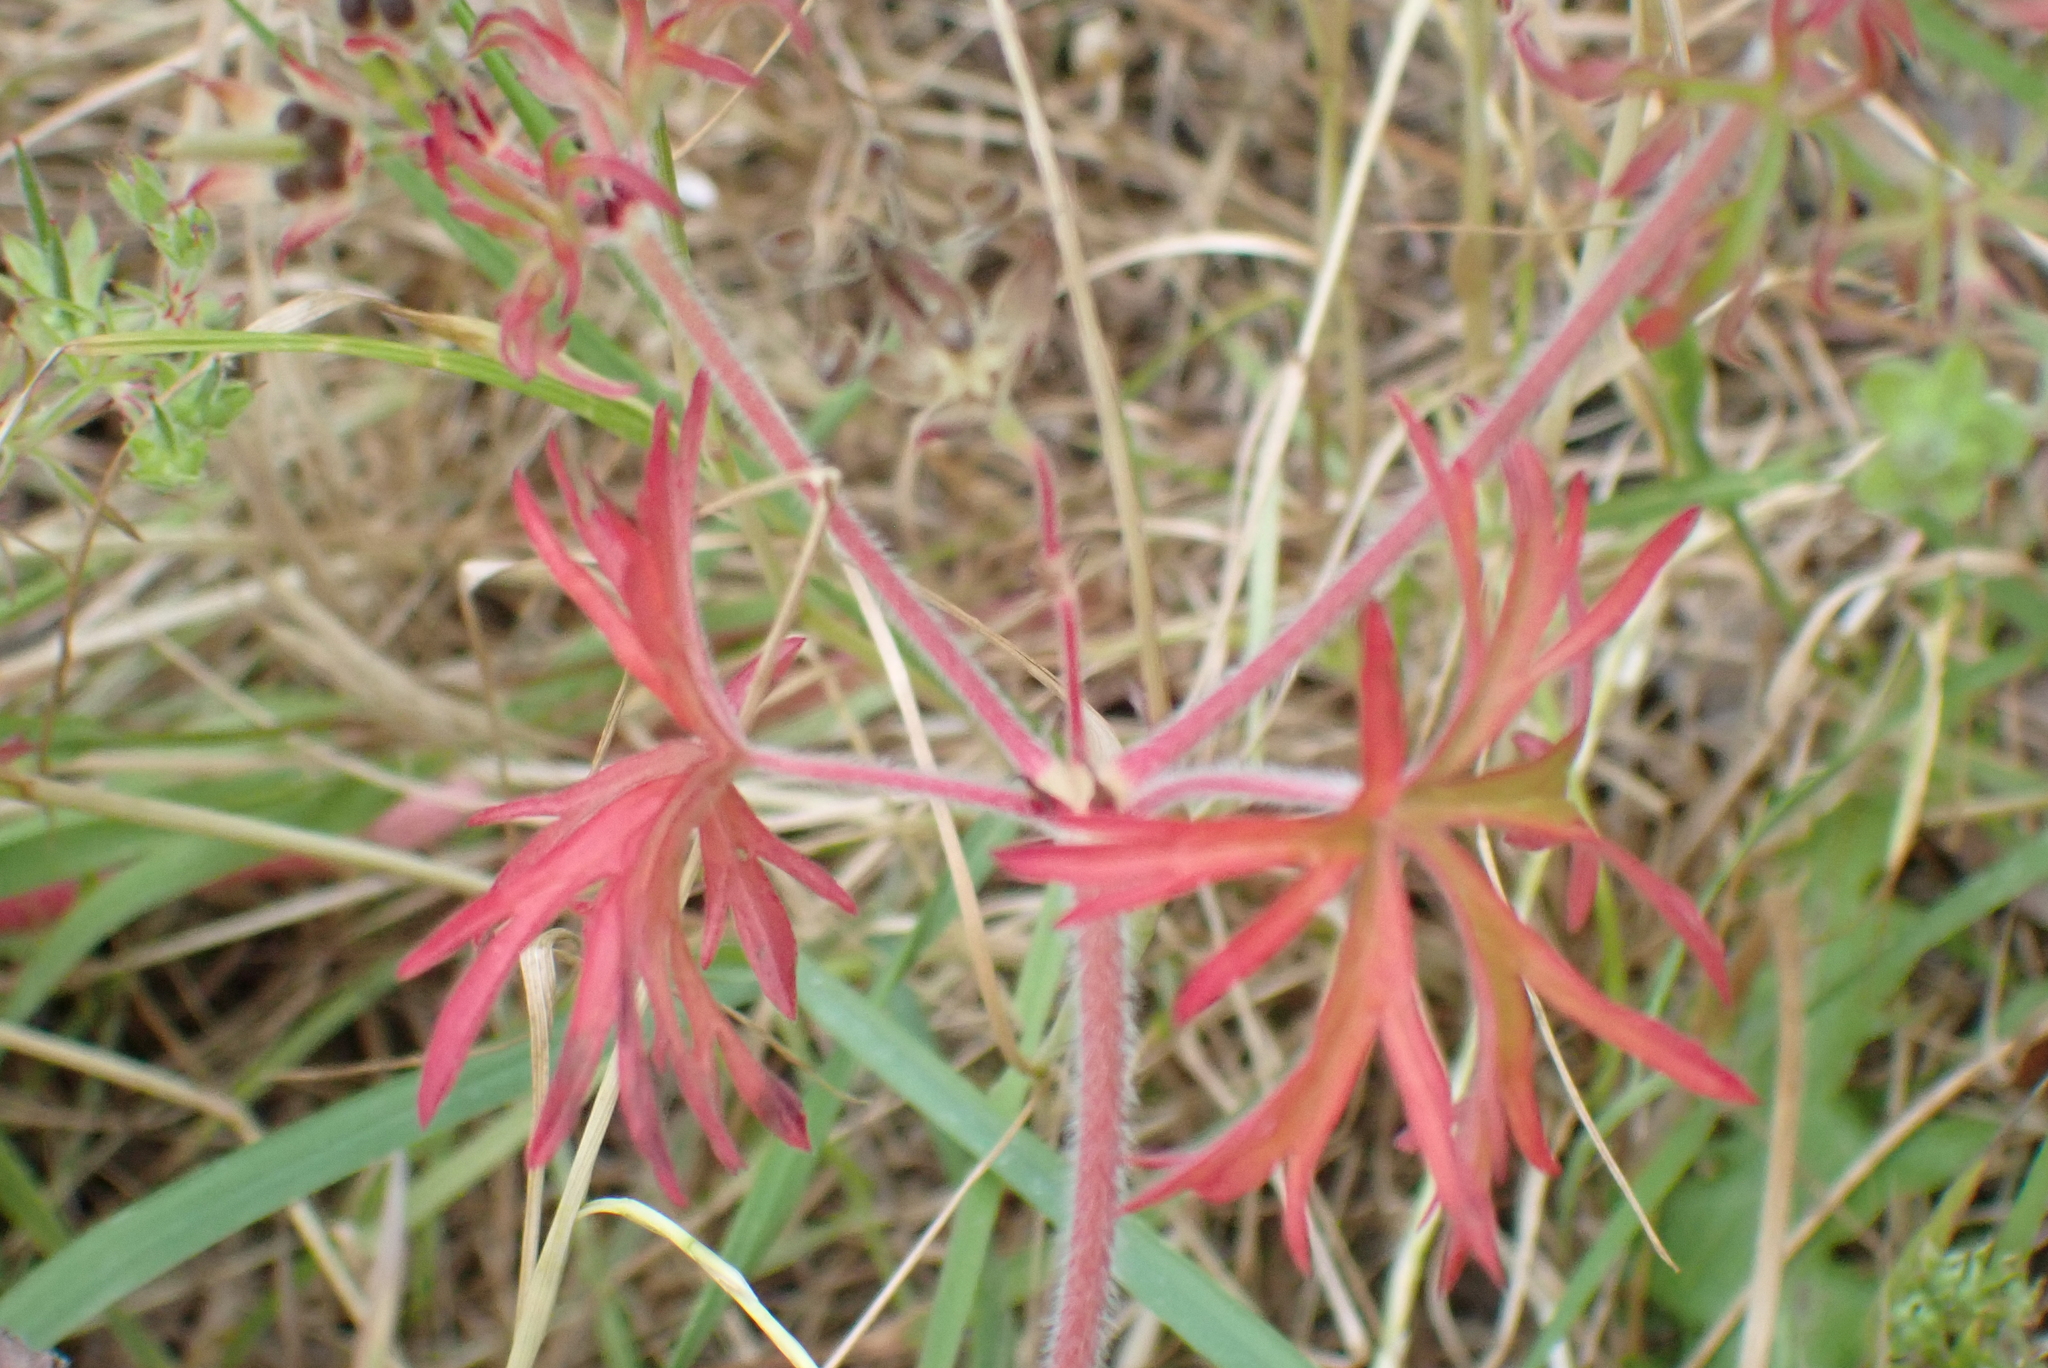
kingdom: Plantae
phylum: Tracheophyta
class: Magnoliopsida
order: Geraniales
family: Geraniaceae
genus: Geranium
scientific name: Geranium dissectum
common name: Cut-leaved crane's-bill
